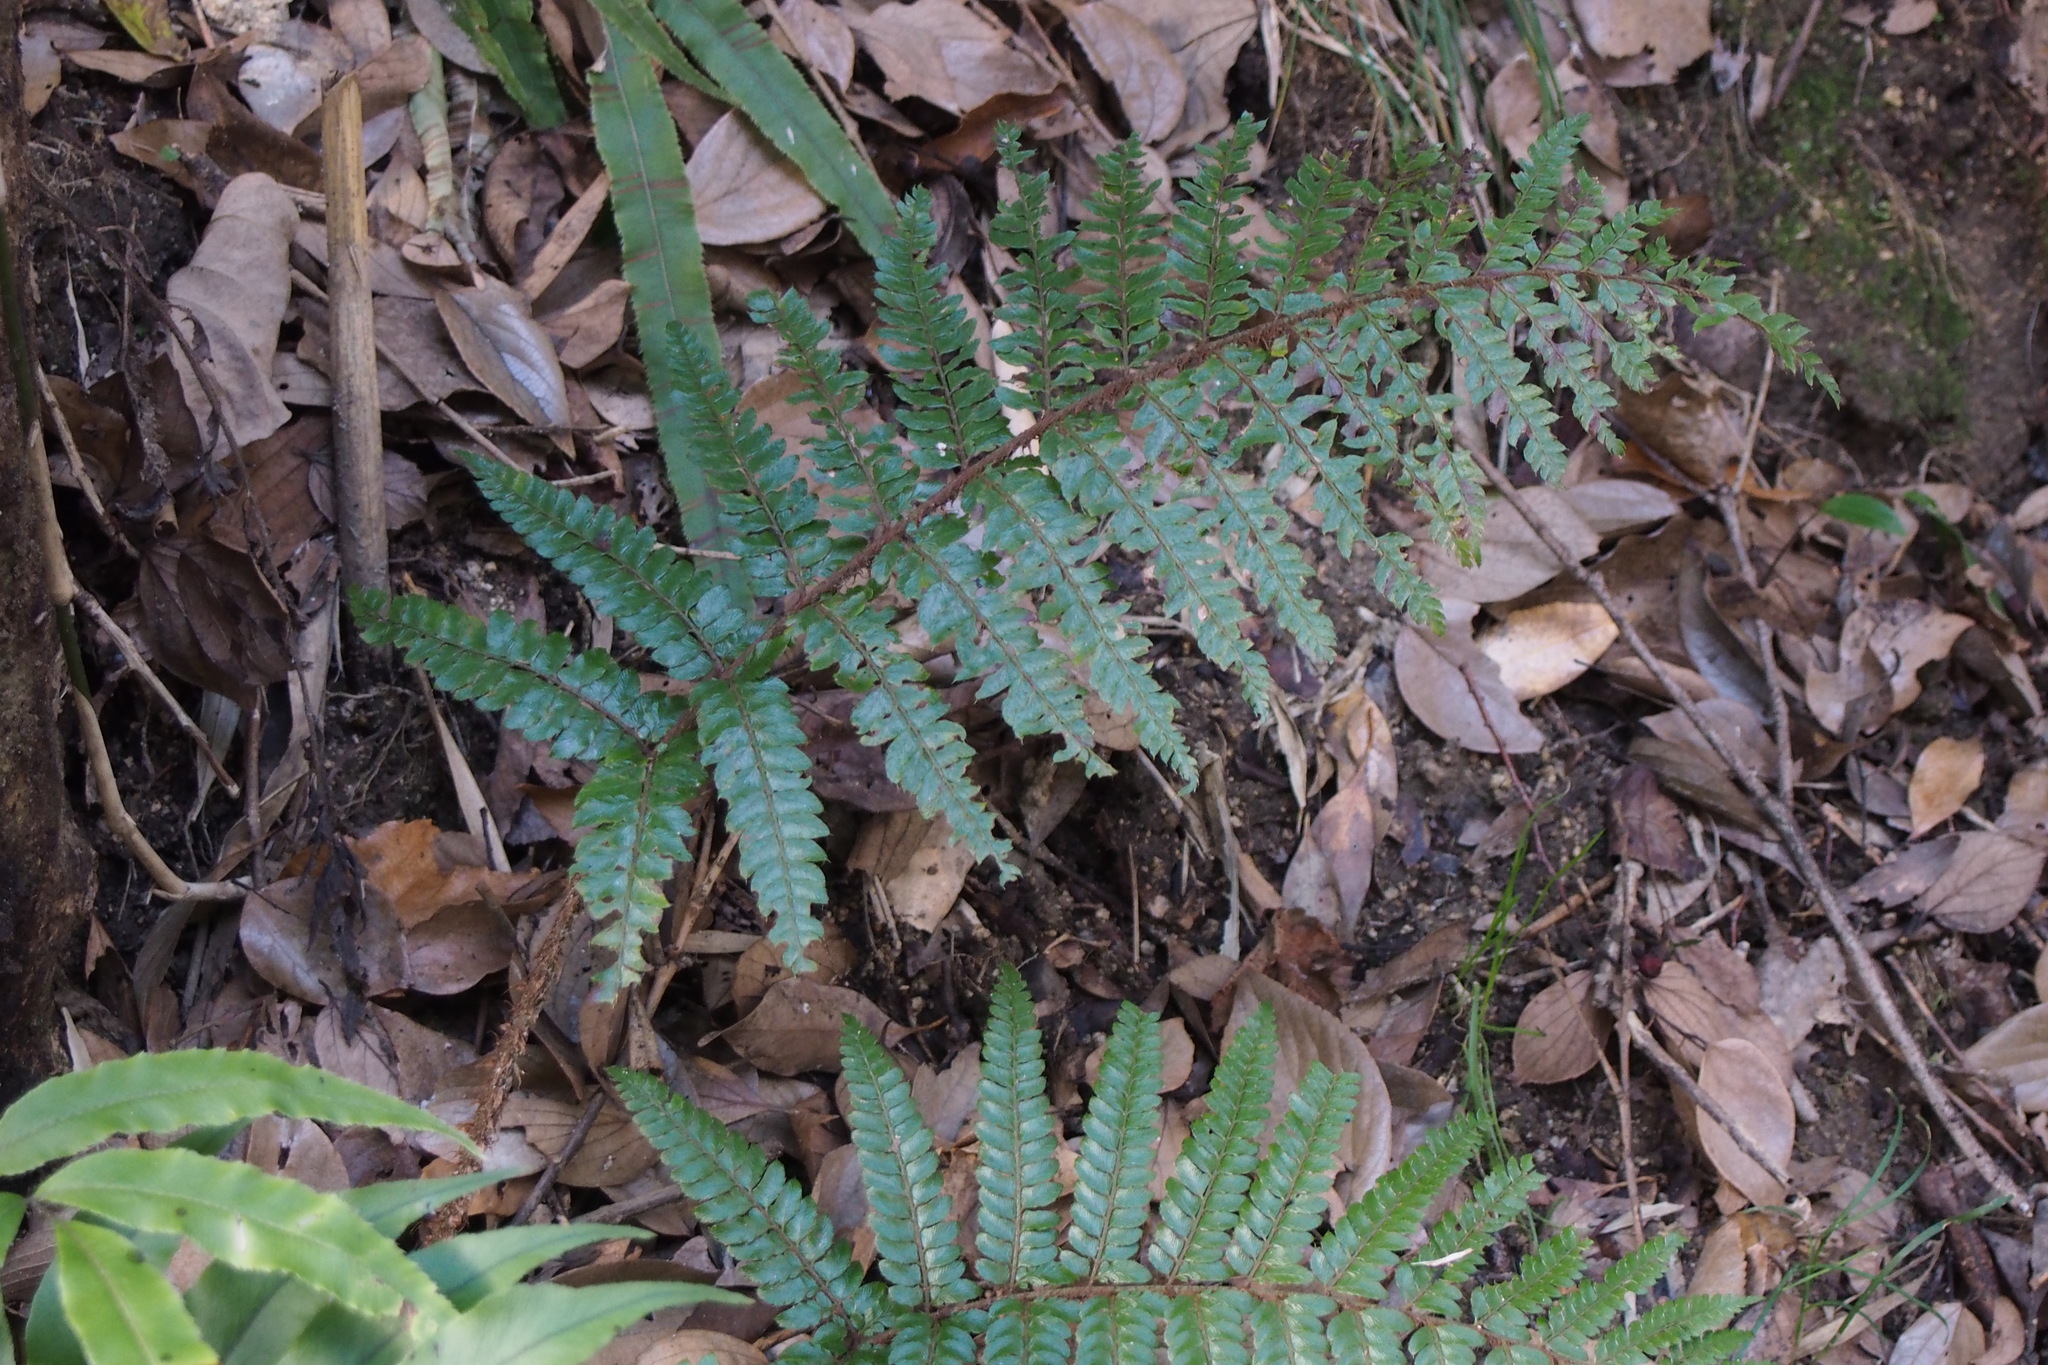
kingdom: Plantae
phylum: Tracheophyta
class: Polypodiopsida
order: Polypodiales
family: Dryopteridaceae
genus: Polystichum
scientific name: Polystichum luctuosum
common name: Korean rockfern
